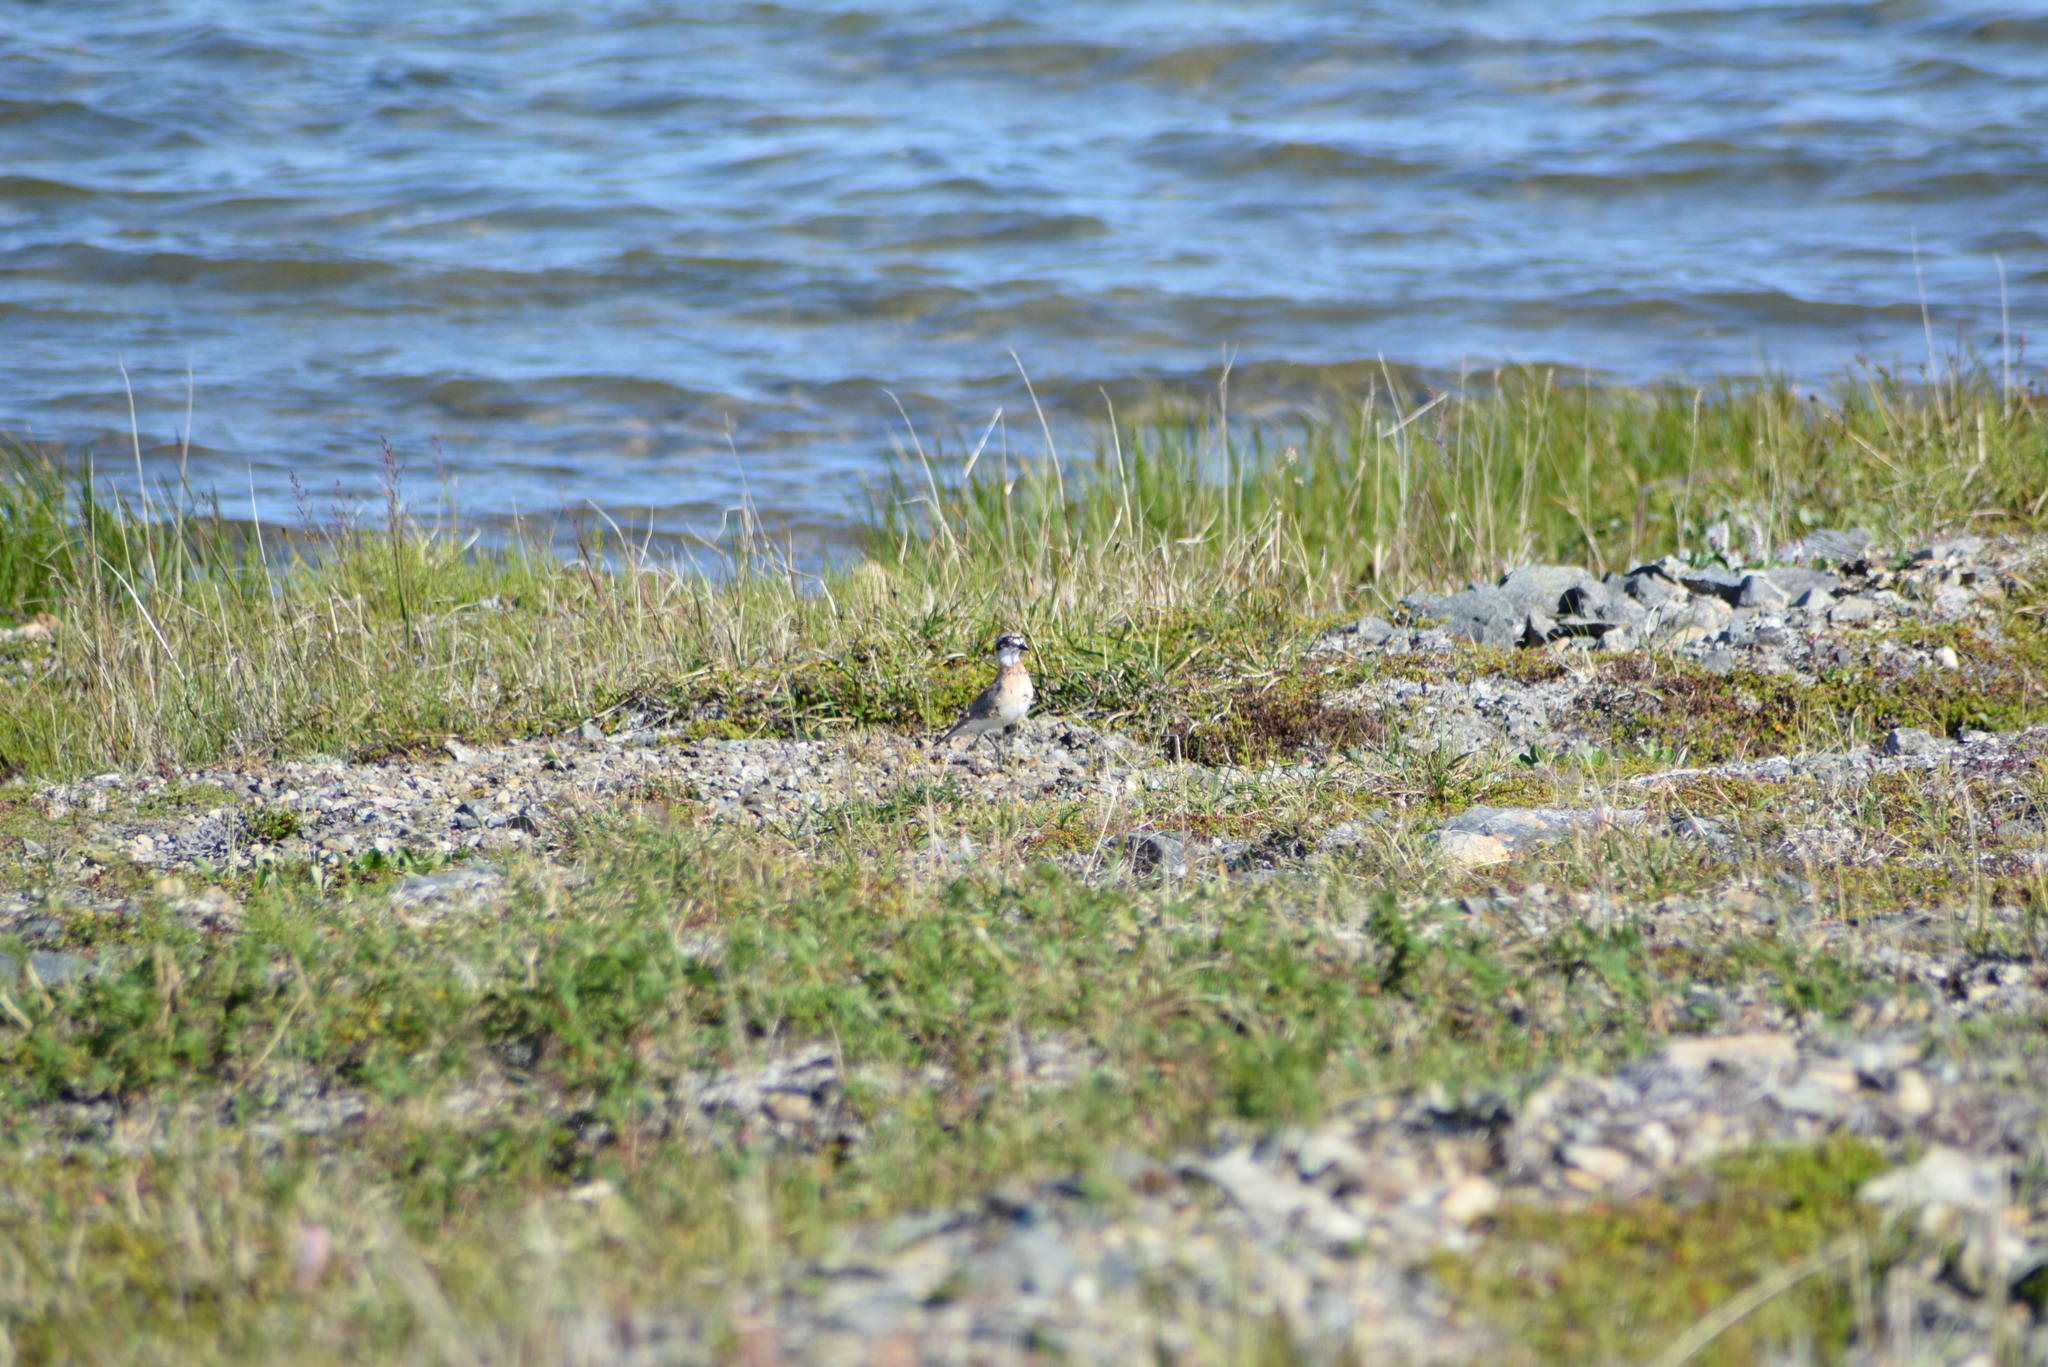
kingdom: Animalia
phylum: Chordata
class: Aves
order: Charadriiformes
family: Charadriidae
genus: Anarhynchus
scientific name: Anarhynchus
